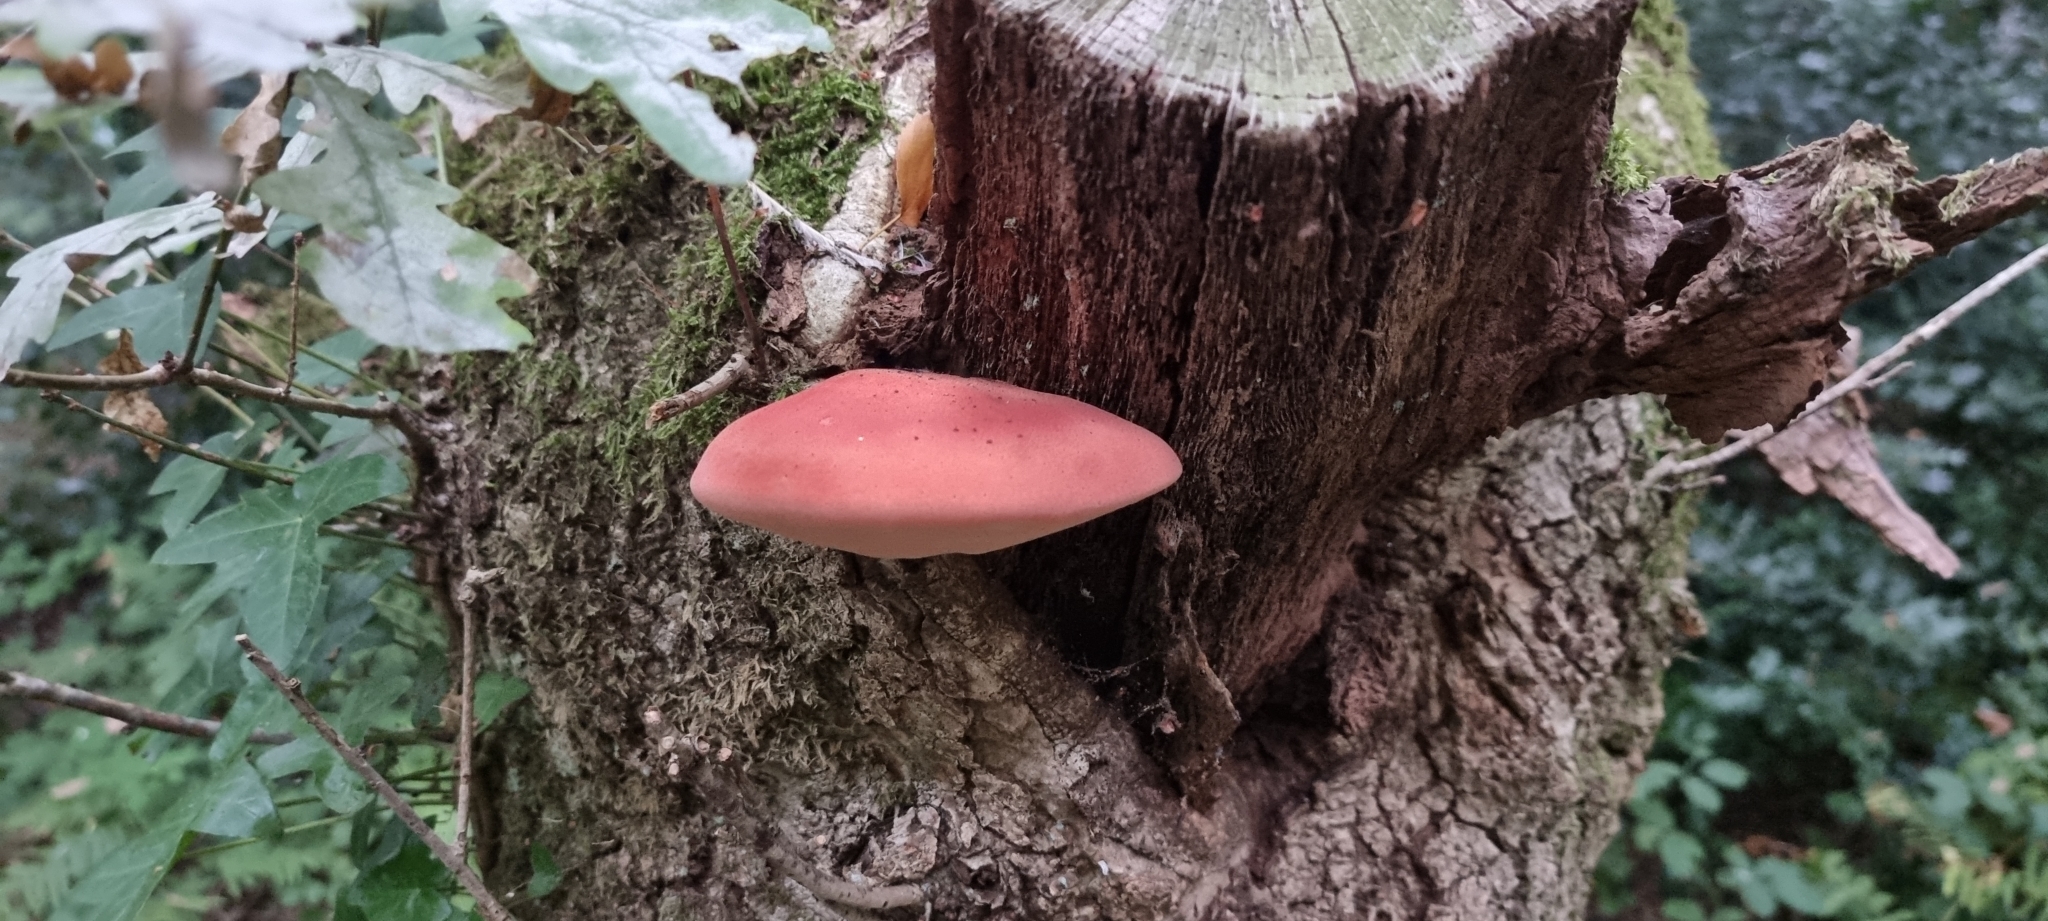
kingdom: Fungi
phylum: Basidiomycota
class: Agaricomycetes
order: Agaricales
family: Fistulinaceae
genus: Fistulina
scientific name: Fistulina hepatica
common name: Beef-steak fungus
